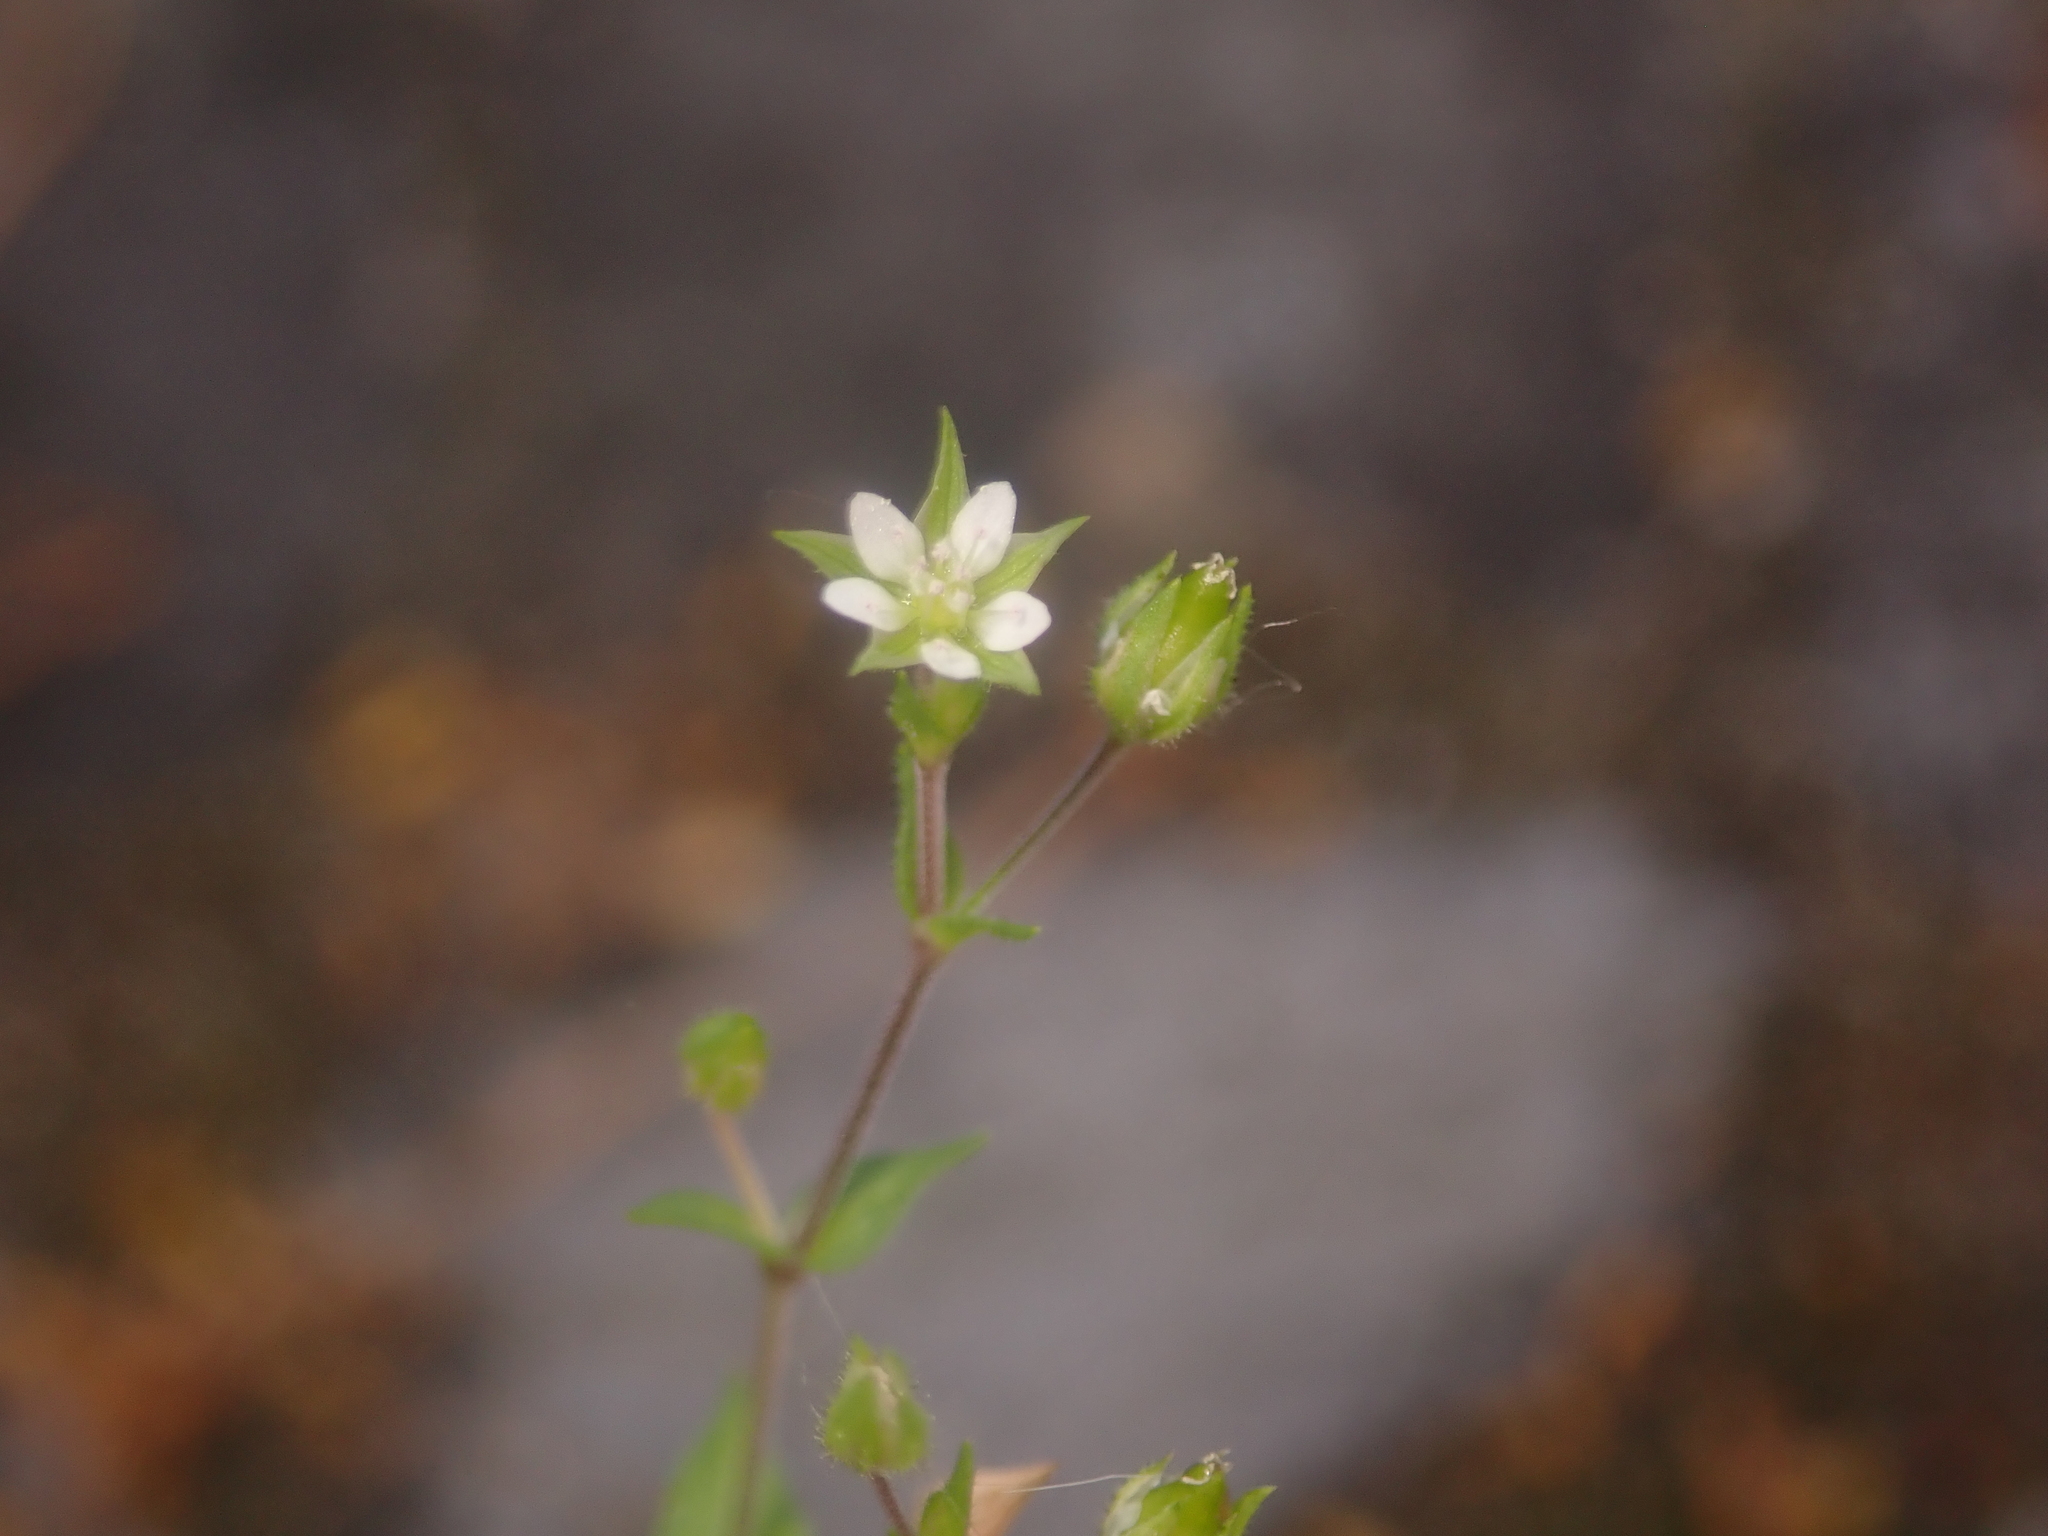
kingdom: Plantae
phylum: Tracheophyta
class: Magnoliopsida
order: Caryophyllales
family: Caryophyllaceae
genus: Arenaria
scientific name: Arenaria serpyllifolia
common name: Thyme-leaved sandwort
